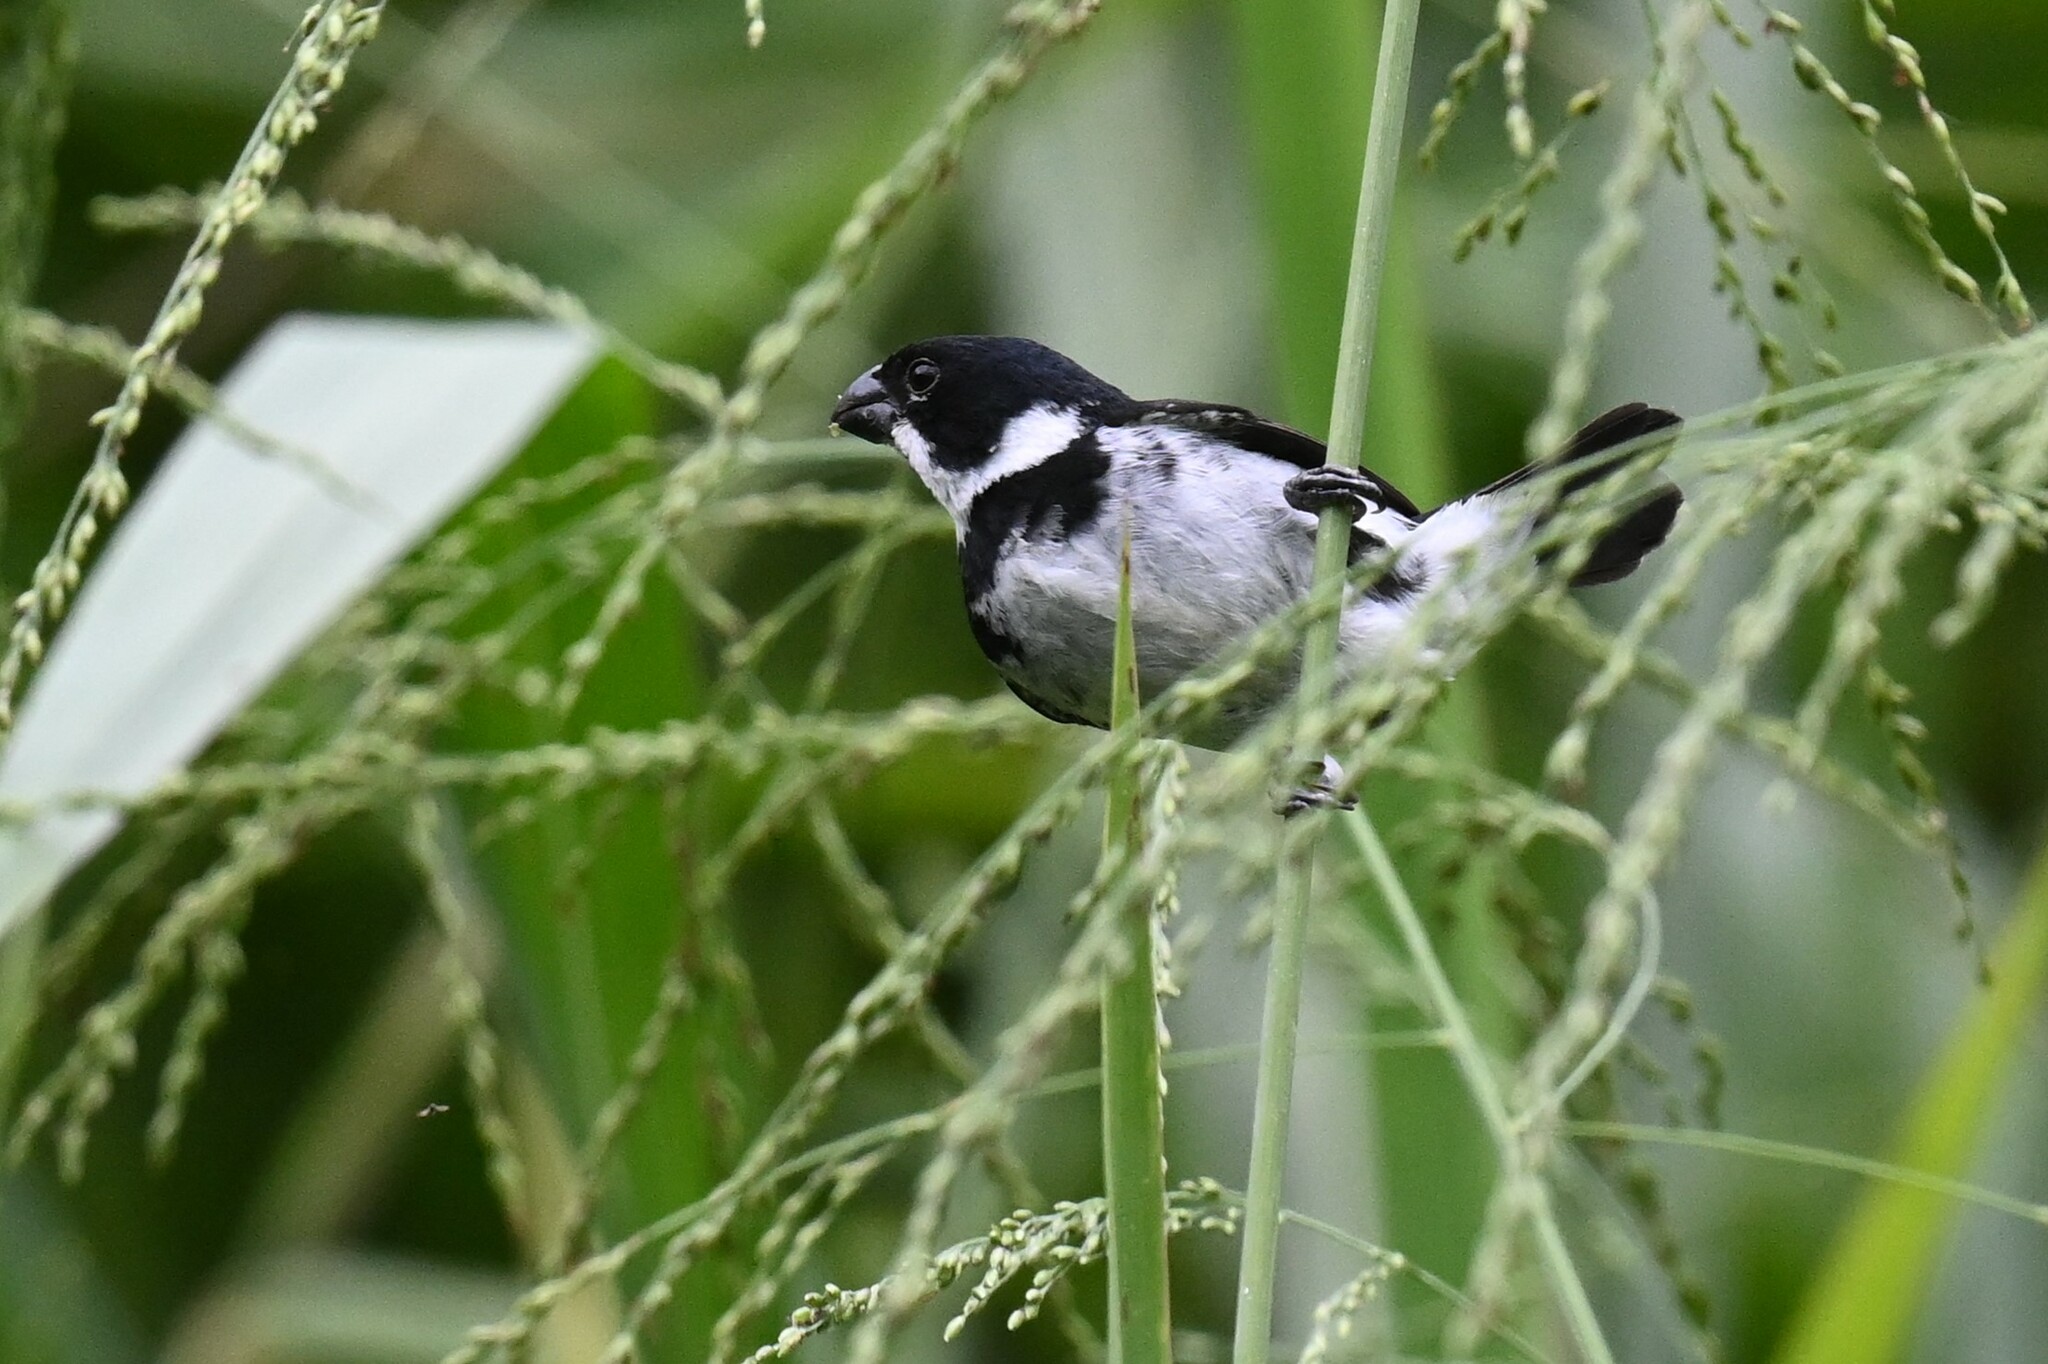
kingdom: Animalia
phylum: Chordata
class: Aves
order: Passeriformes
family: Thraupidae
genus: Sporophila
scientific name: Sporophila corvina
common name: Variable seedeater
